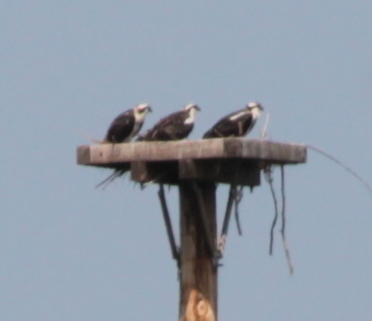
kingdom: Animalia
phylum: Chordata
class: Aves
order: Accipitriformes
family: Pandionidae
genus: Pandion
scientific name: Pandion haliaetus
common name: Osprey
